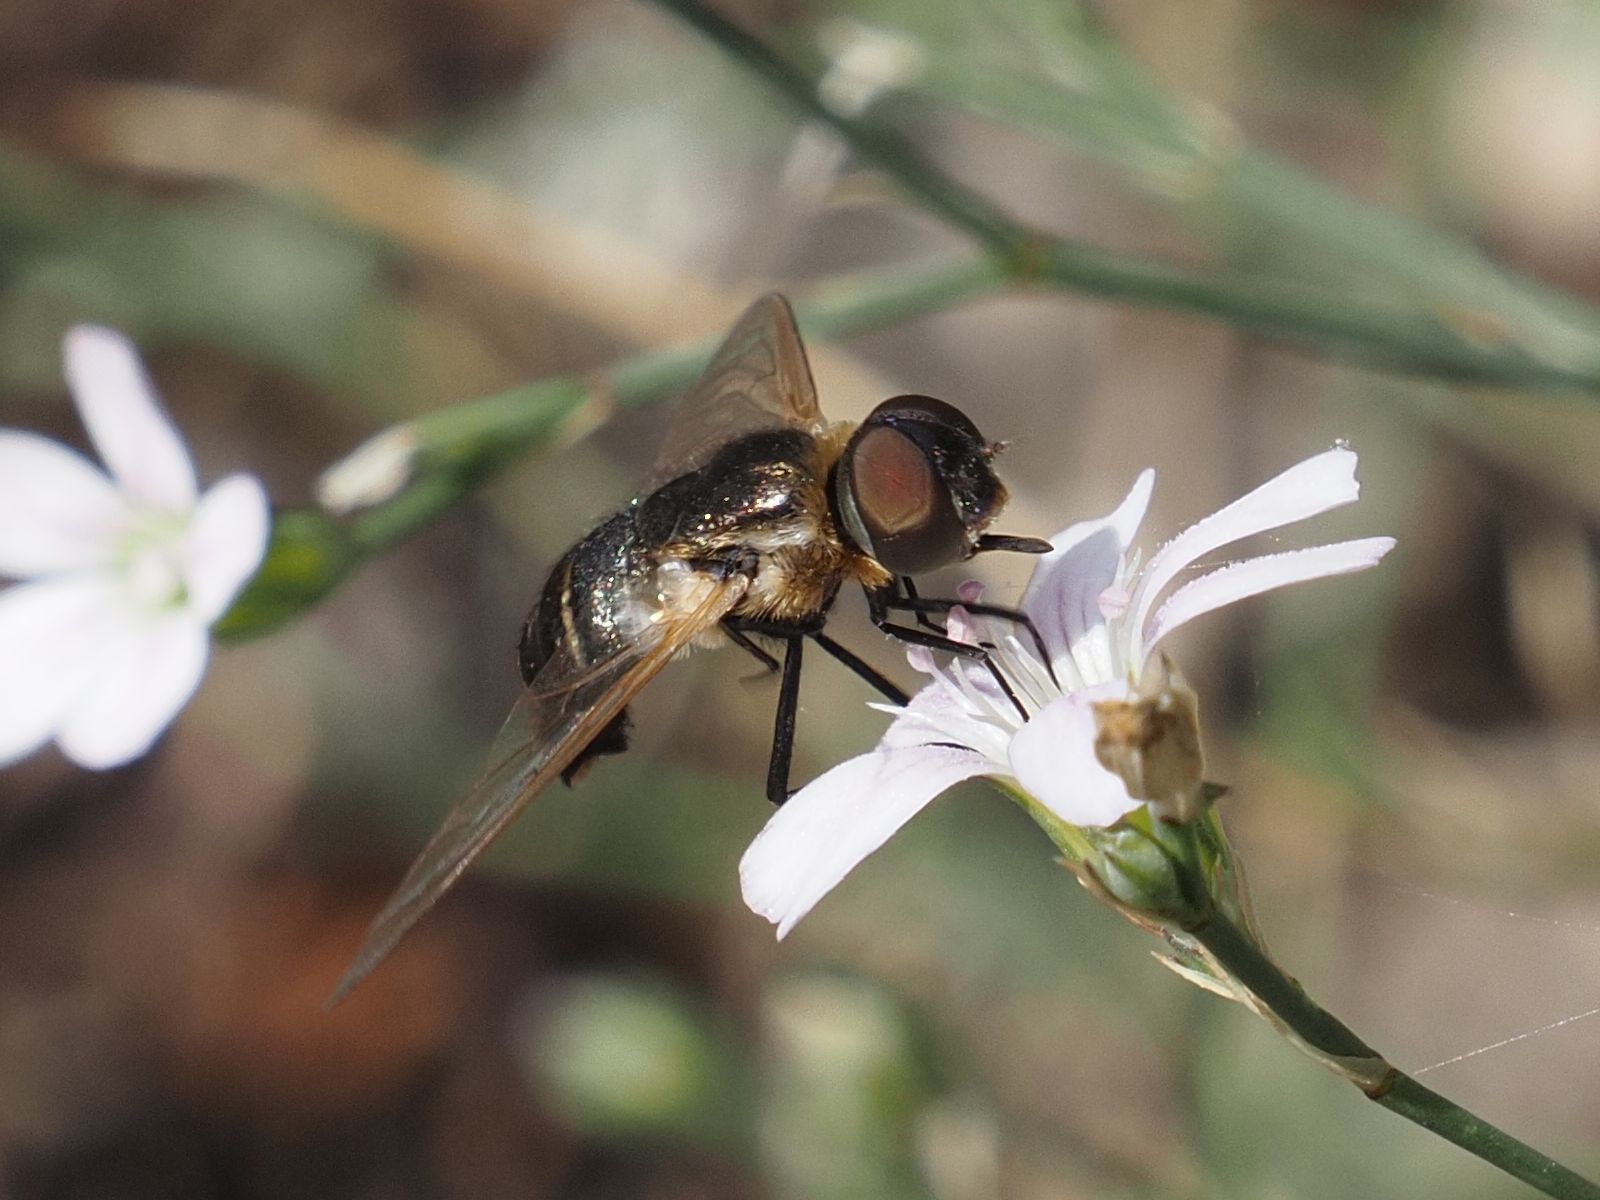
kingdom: Animalia
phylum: Arthropoda
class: Insecta
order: Diptera
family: Bombyliidae
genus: Micomitra
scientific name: Micomitra stupida
